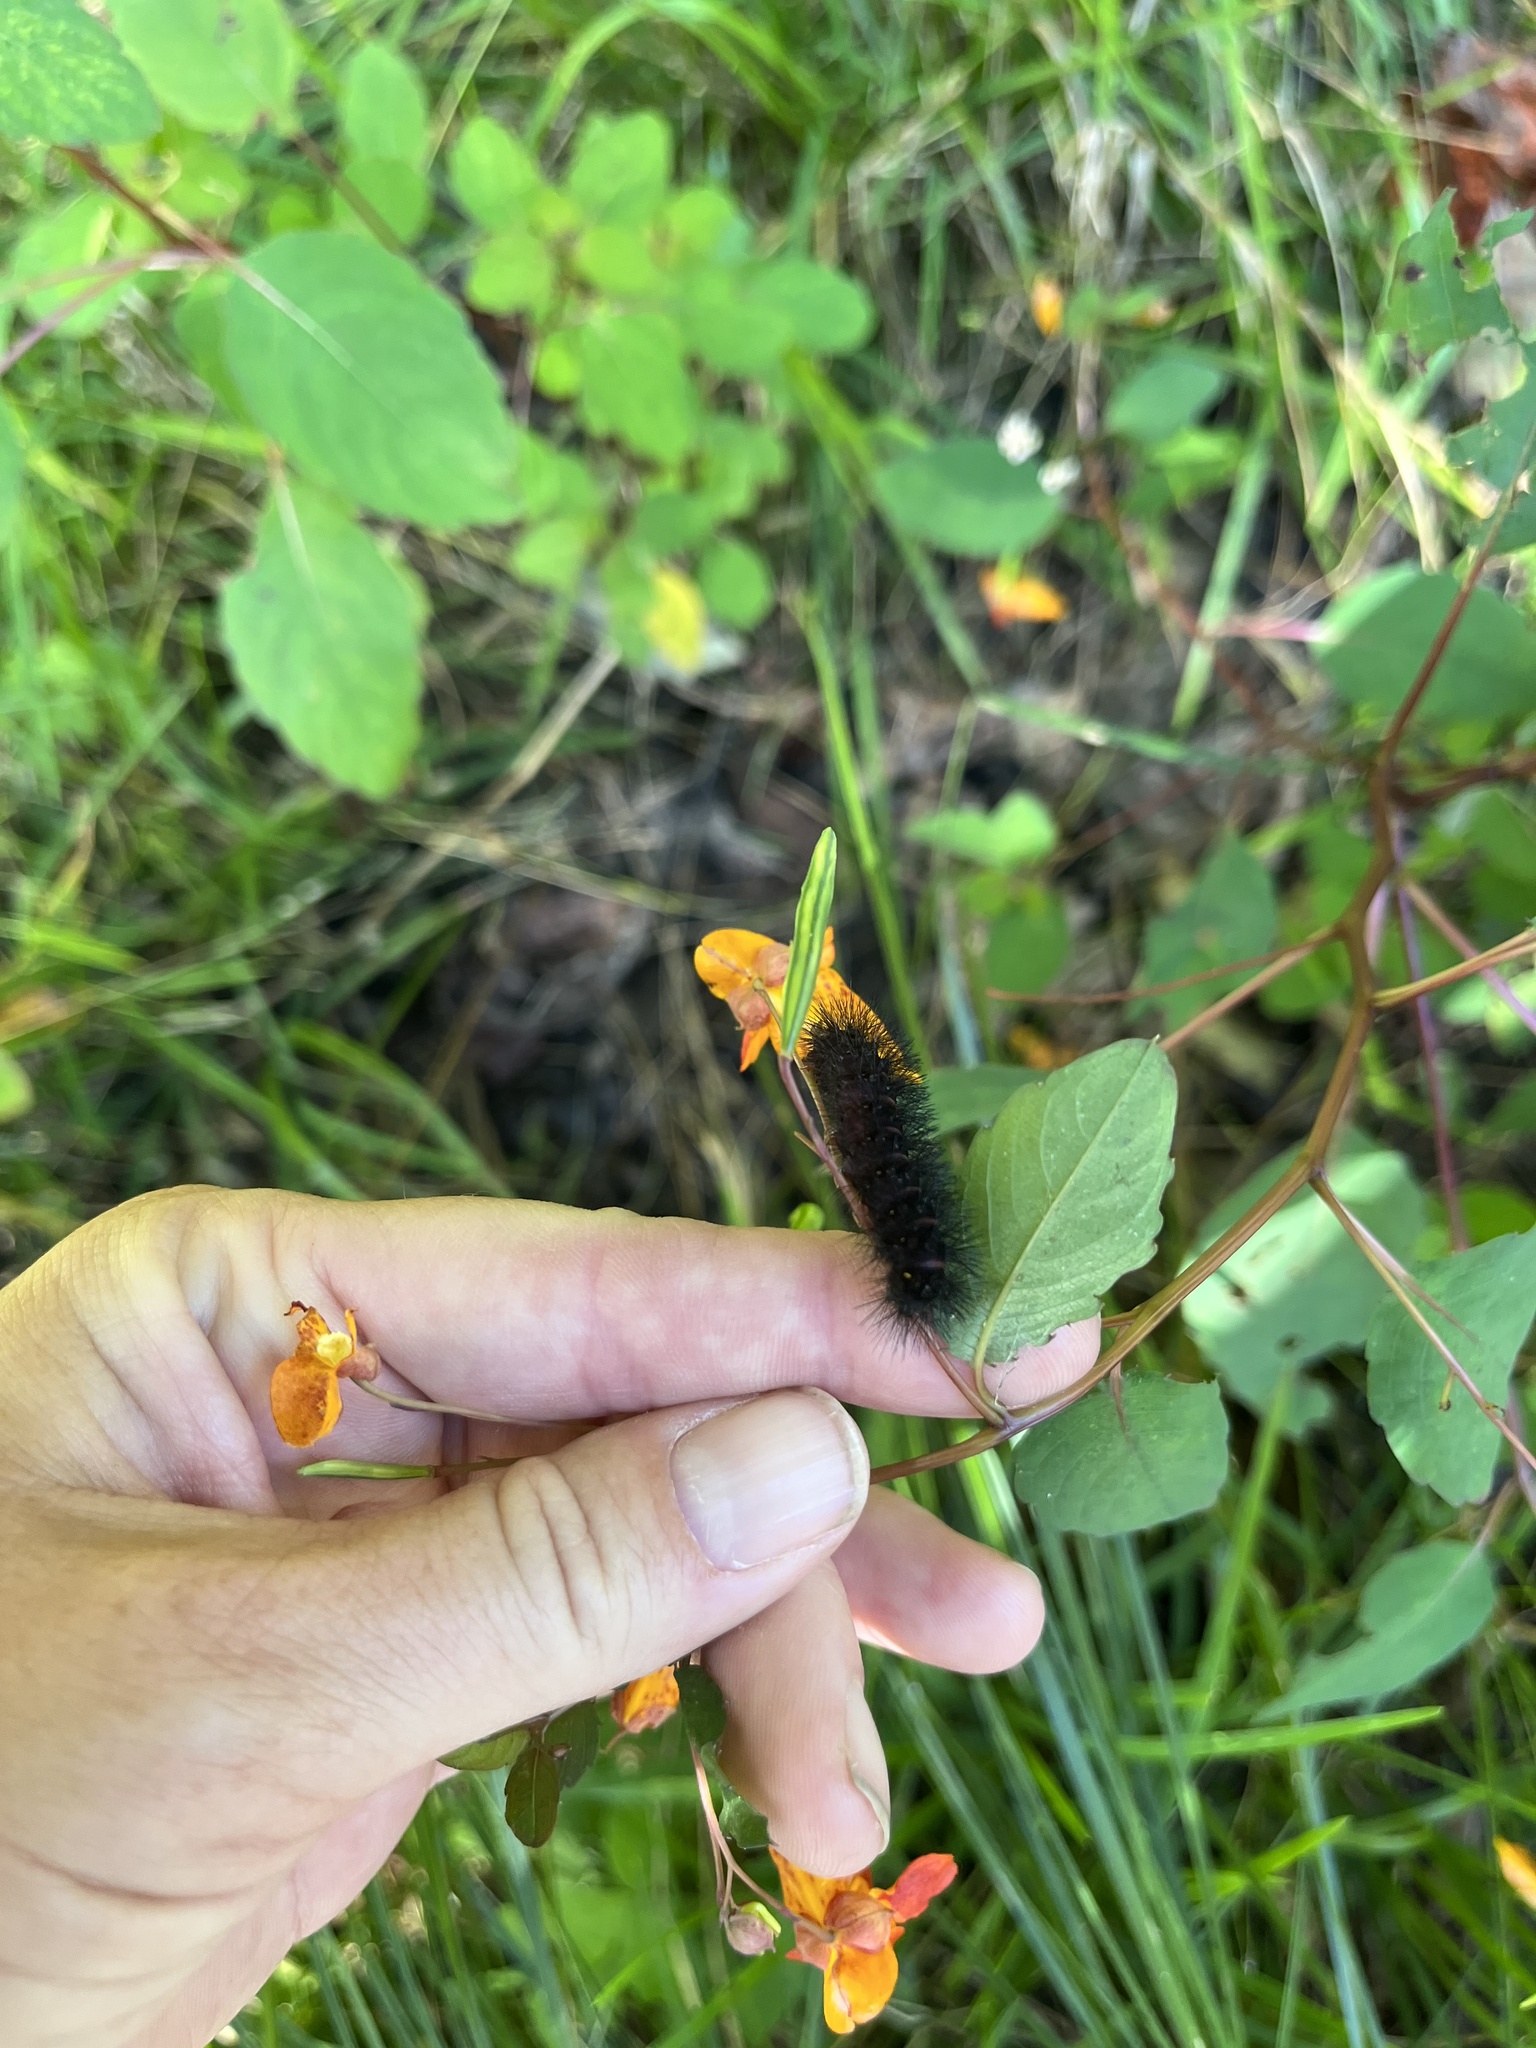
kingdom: Animalia
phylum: Arthropoda
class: Insecta
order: Lepidoptera
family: Erebidae
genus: Hypercompe
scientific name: Hypercompe scribonia
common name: Giant leopard moth
